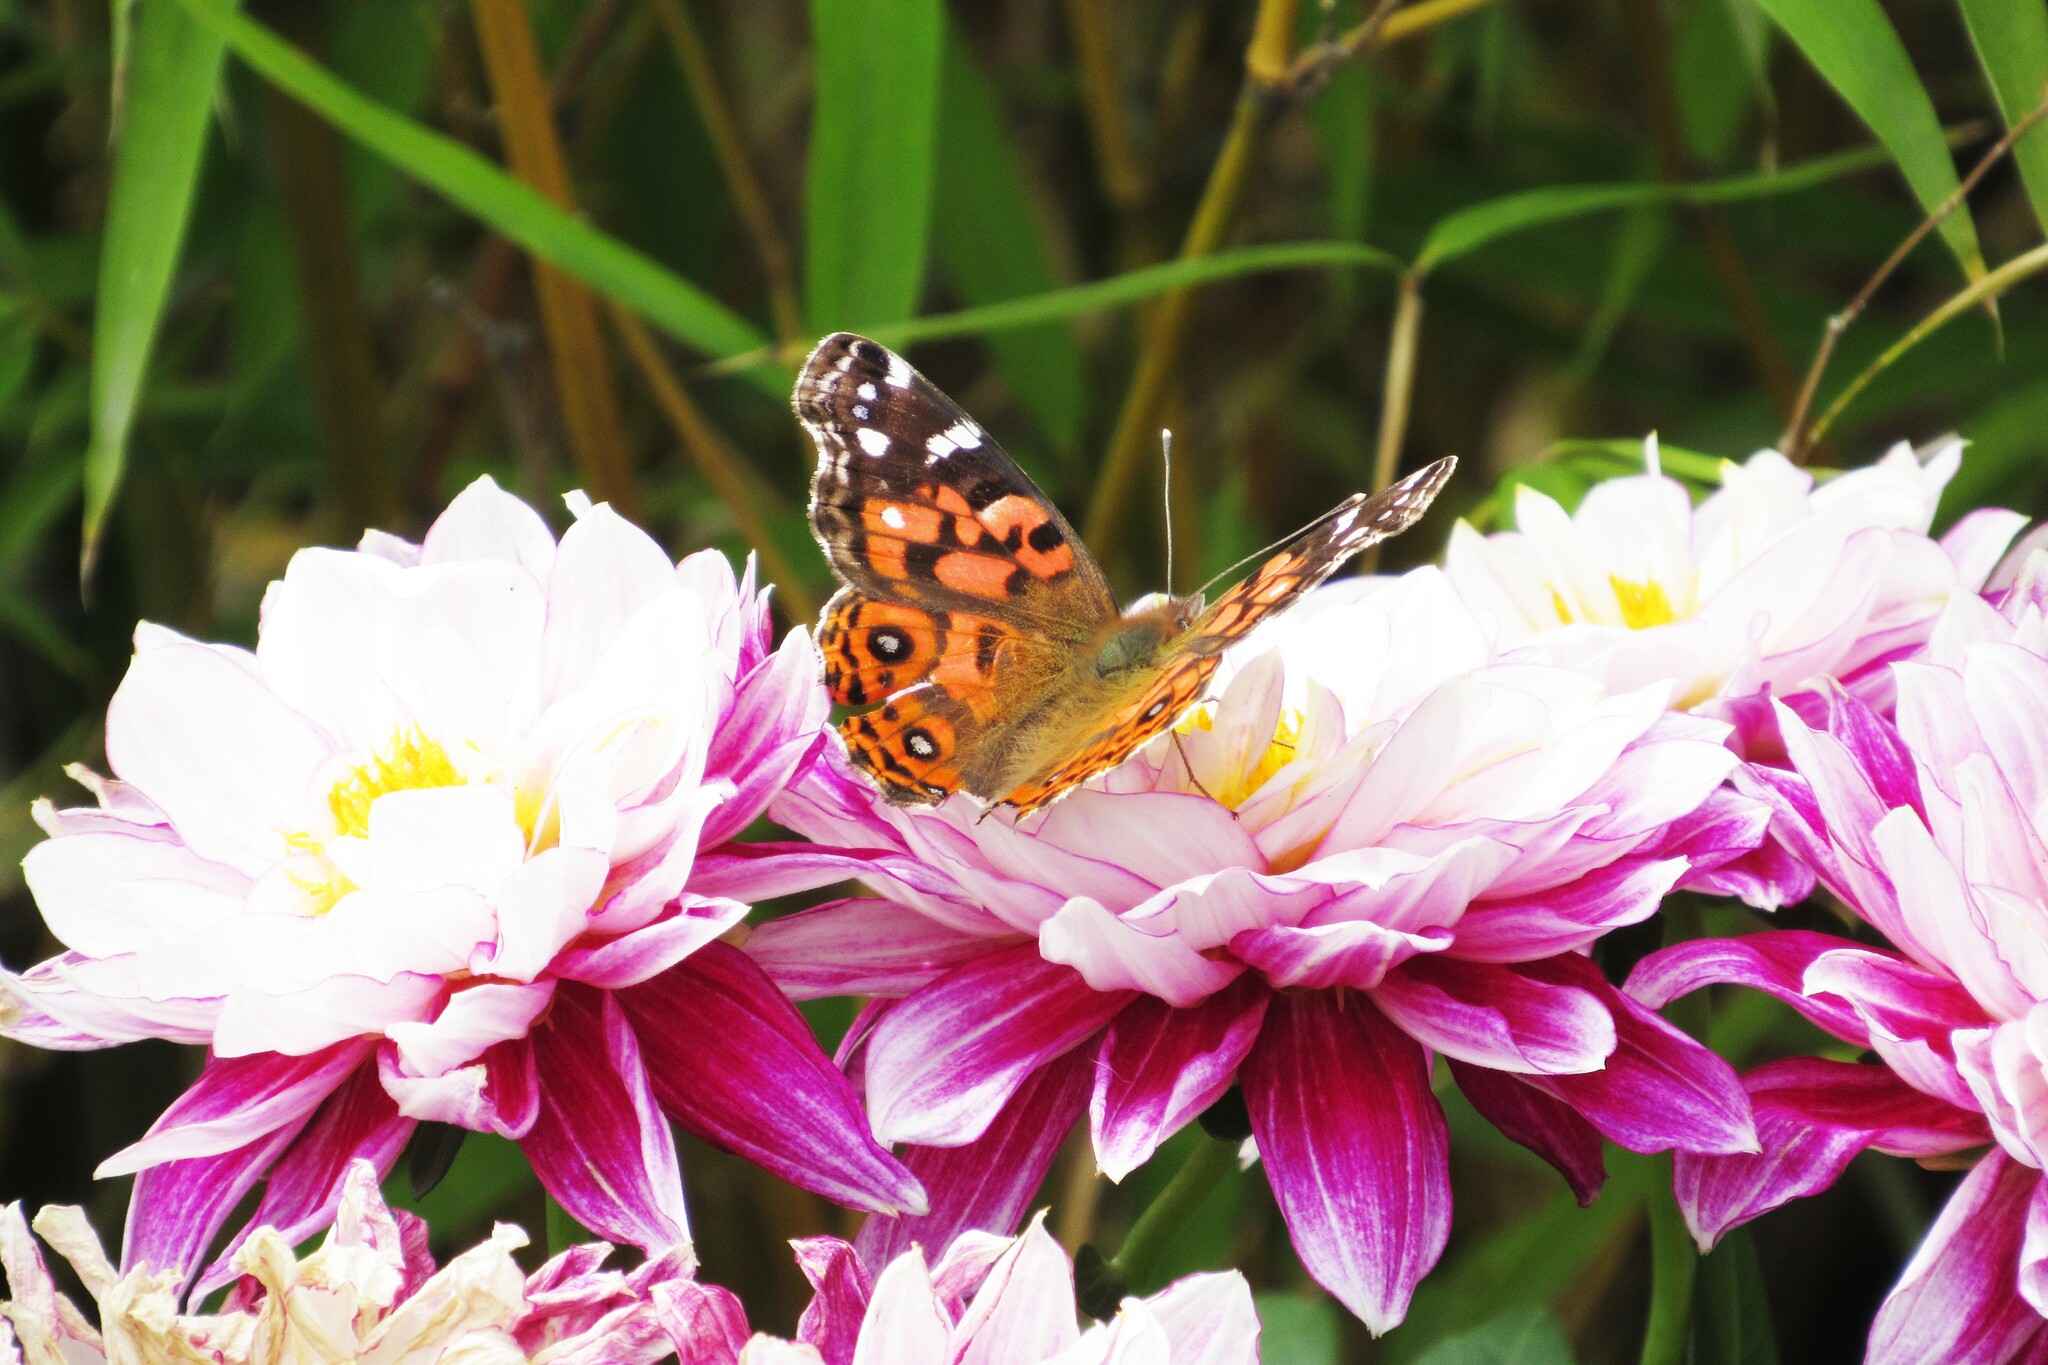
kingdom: Animalia
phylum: Arthropoda
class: Insecta
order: Lepidoptera
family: Nymphalidae
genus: Vanessa
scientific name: Vanessa braziliensis
